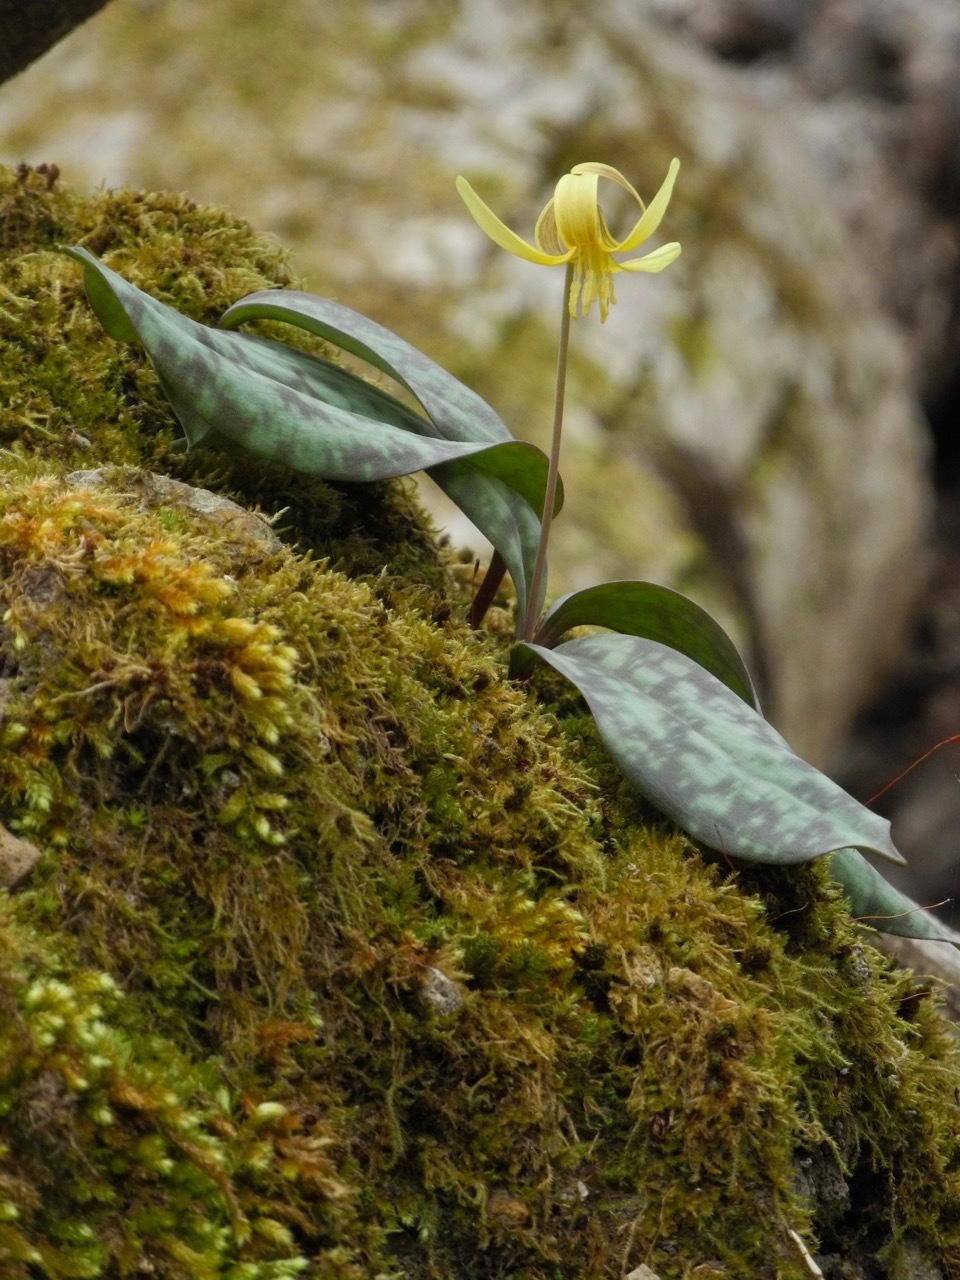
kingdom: Plantae
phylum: Tracheophyta
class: Liliopsida
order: Liliales
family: Liliaceae
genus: Erythronium
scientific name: Erythronium americanum
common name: Yellow adder's-tongue
